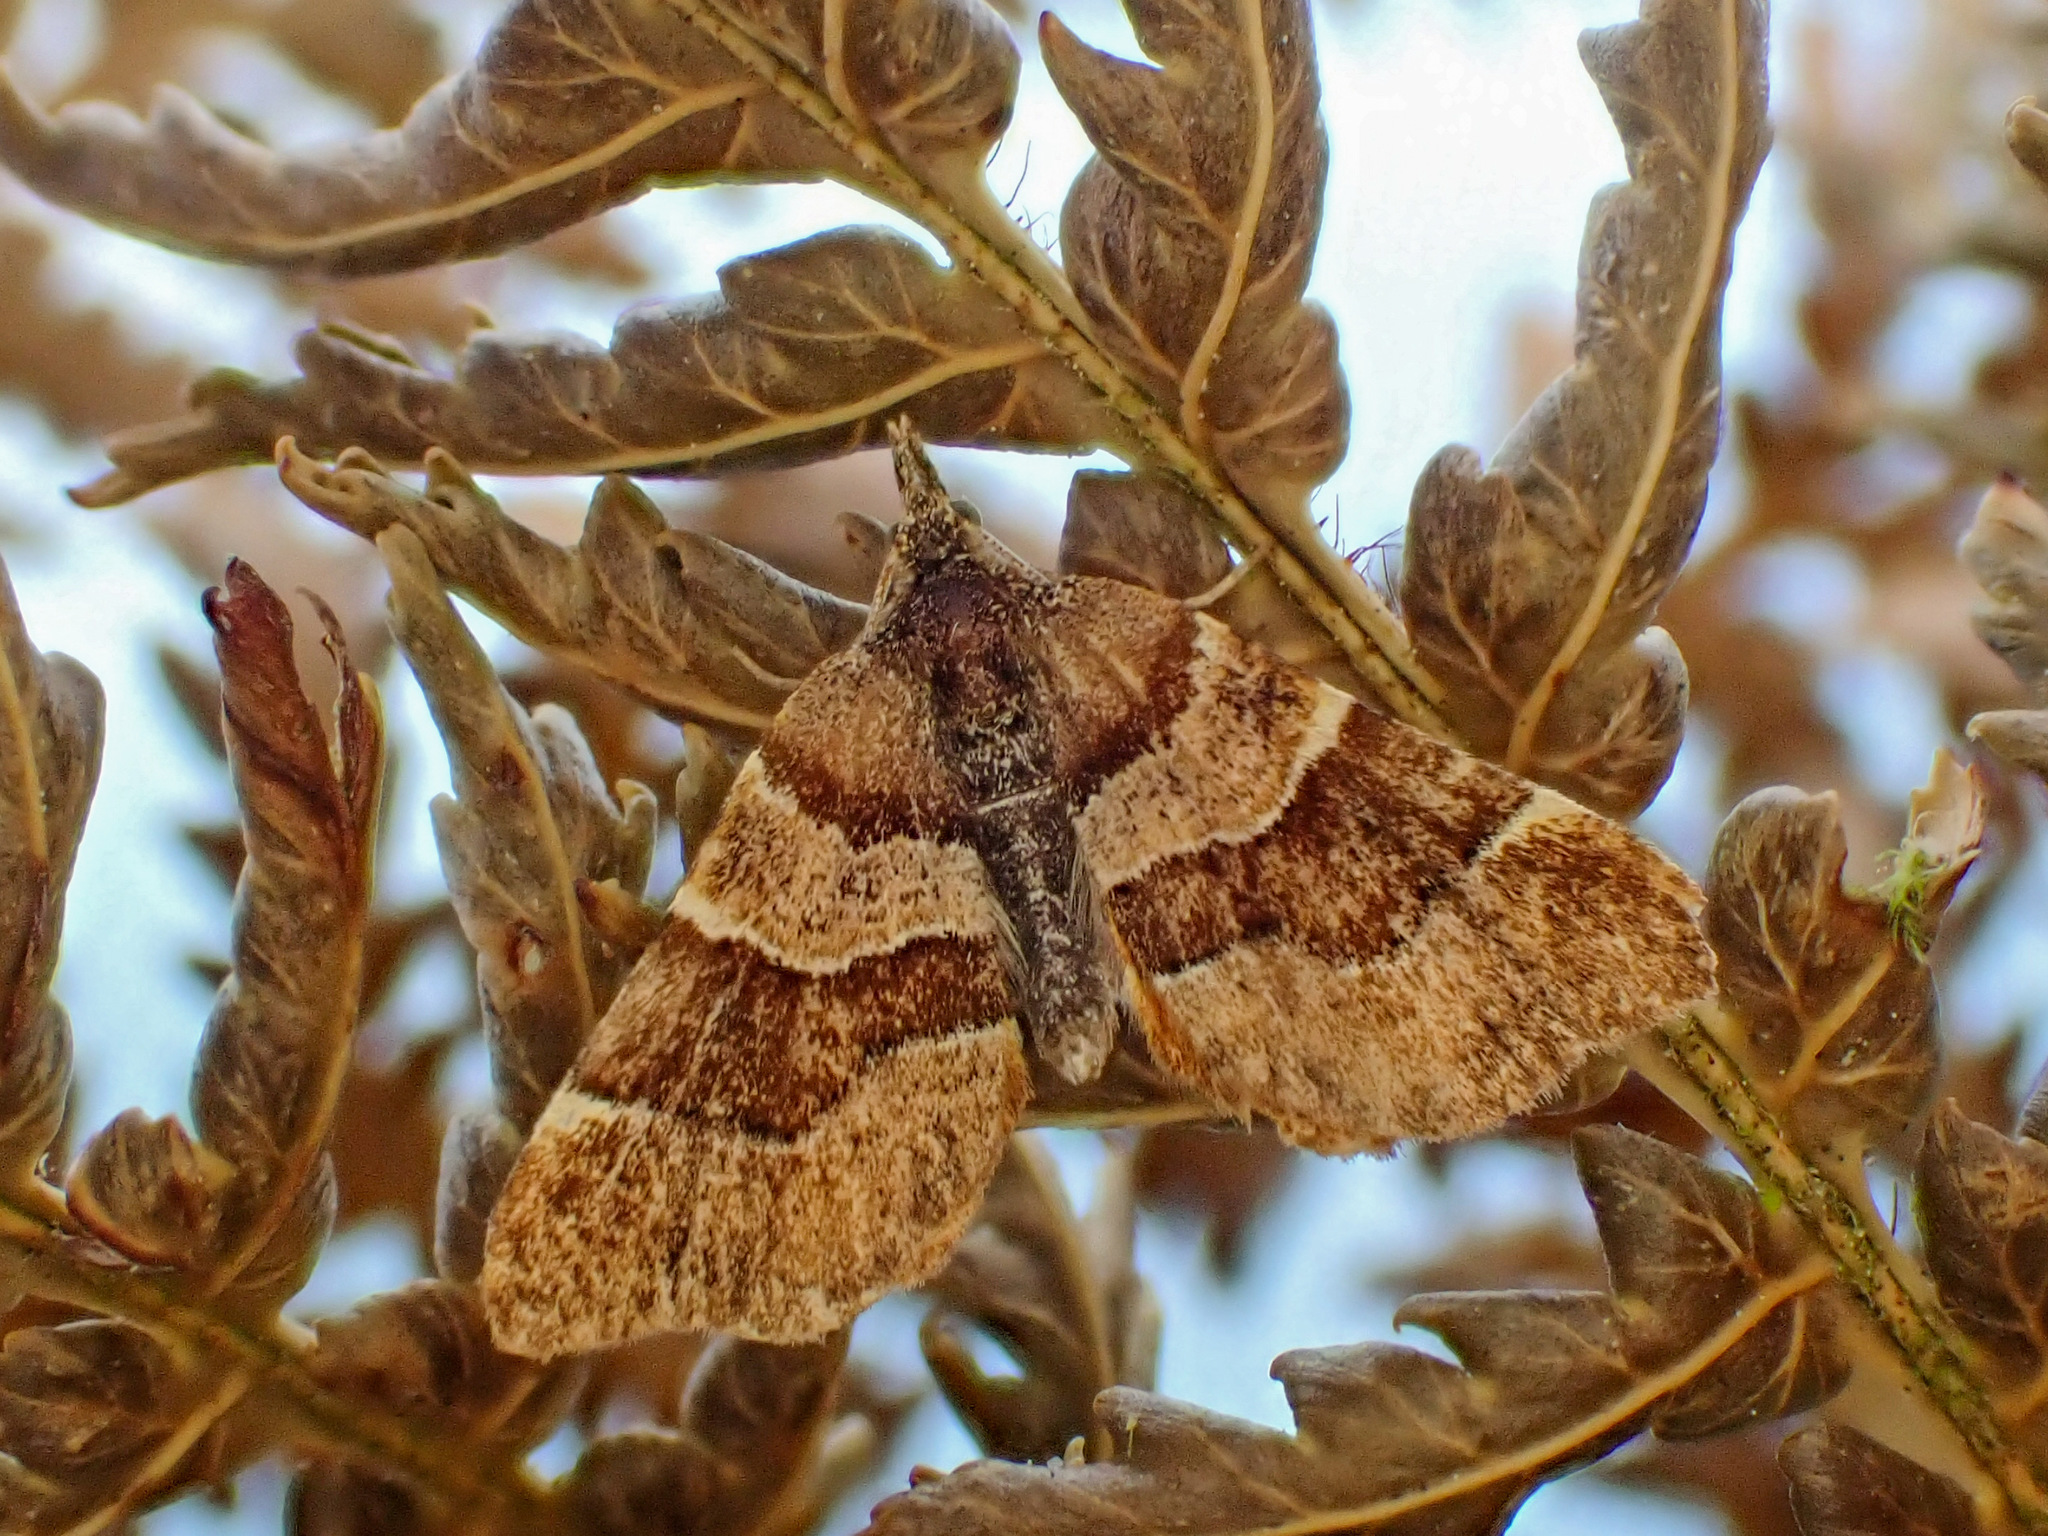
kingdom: Animalia
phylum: Arthropoda
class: Insecta
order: Lepidoptera
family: Geometridae
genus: Cephalissa
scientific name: Cephalissa siria
